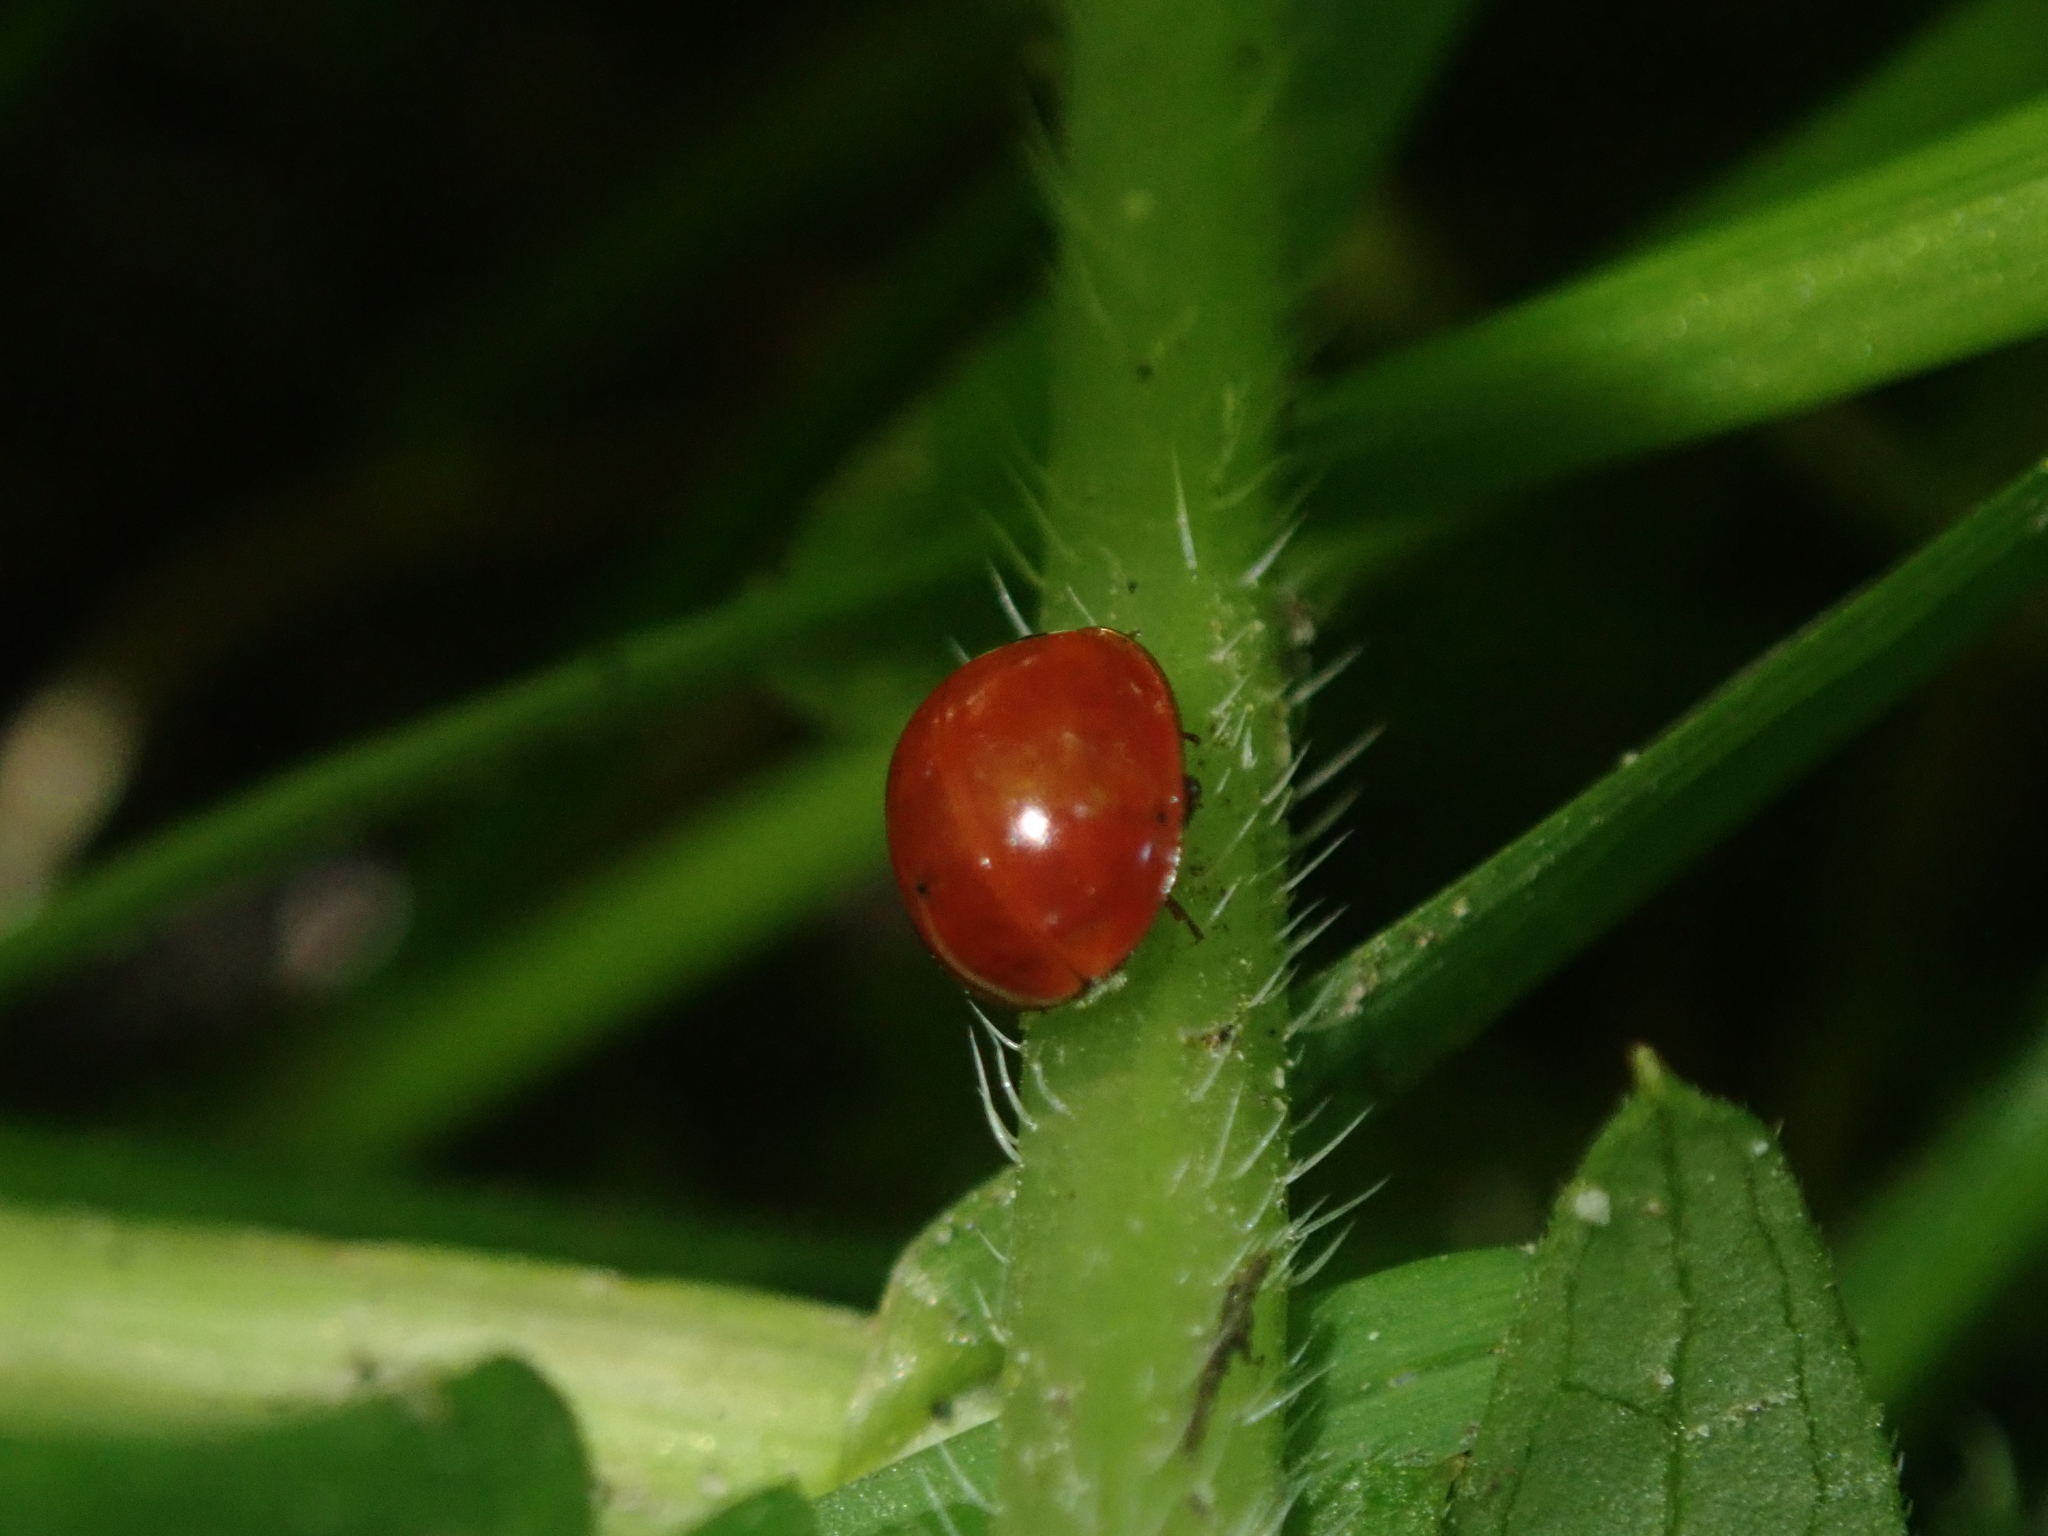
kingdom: Animalia
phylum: Arthropoda
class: Insecta
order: Coleoptera
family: Coccinellidae
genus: Cycloneda
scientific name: Cycloneda polita
